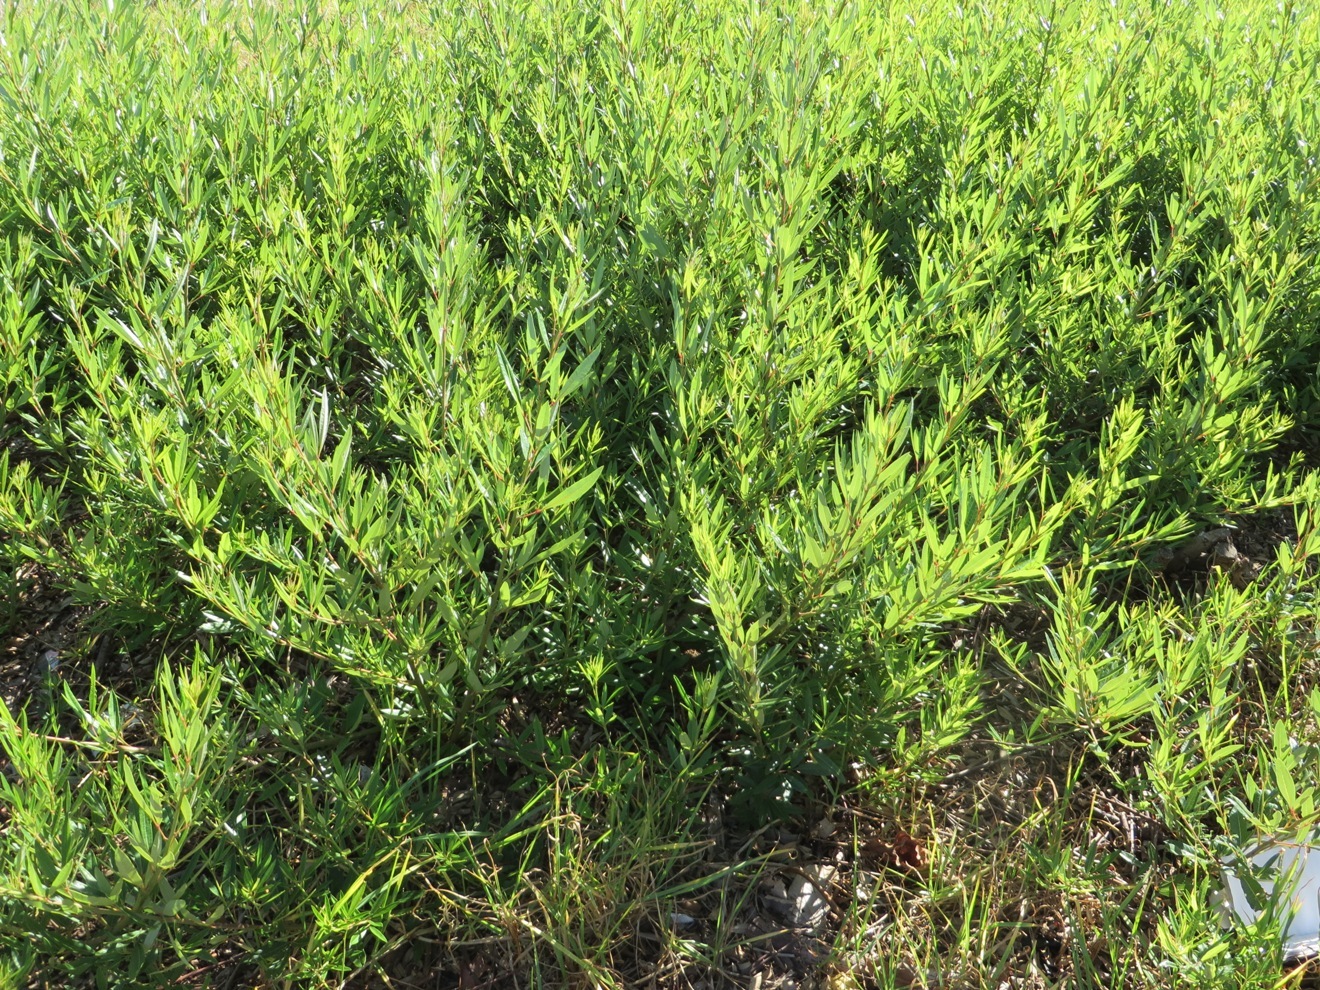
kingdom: Plantae
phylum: Tracheophyta
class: Magnoliopsida
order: Sapindales
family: Anacardiaceae
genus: Searsia
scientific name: Searsia angustifolia
